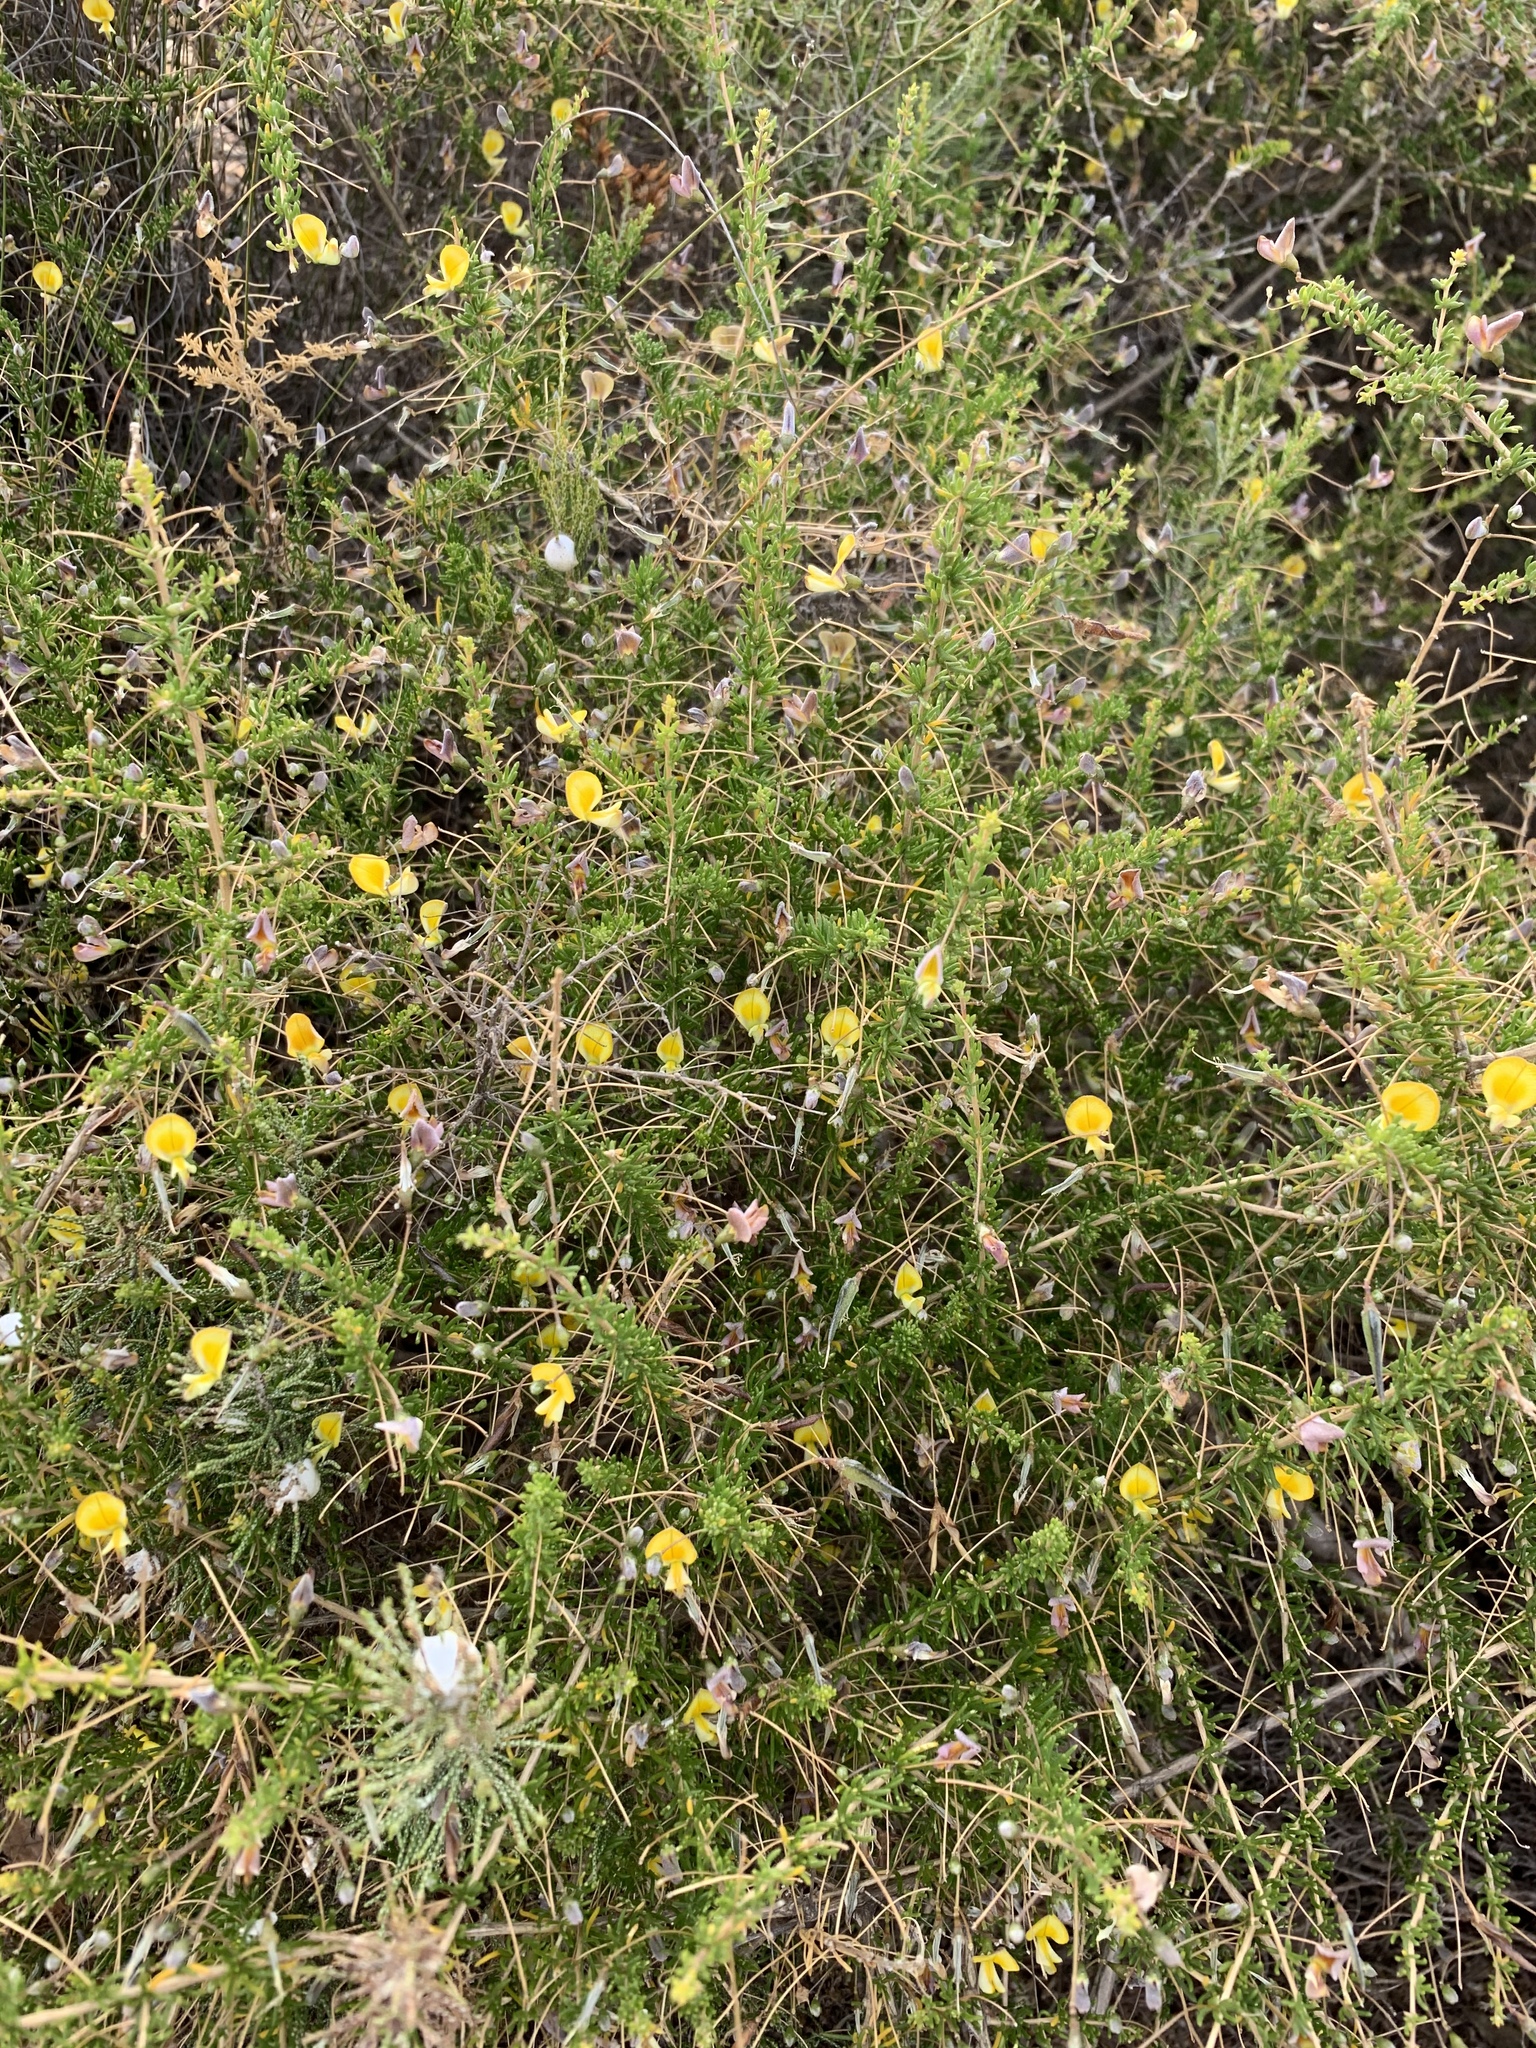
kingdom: Plantae
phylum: Tracheophyta
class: Magnoliopsida
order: Fabales
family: Fabaceae
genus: Aspalathus
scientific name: Aspalathus serpens
